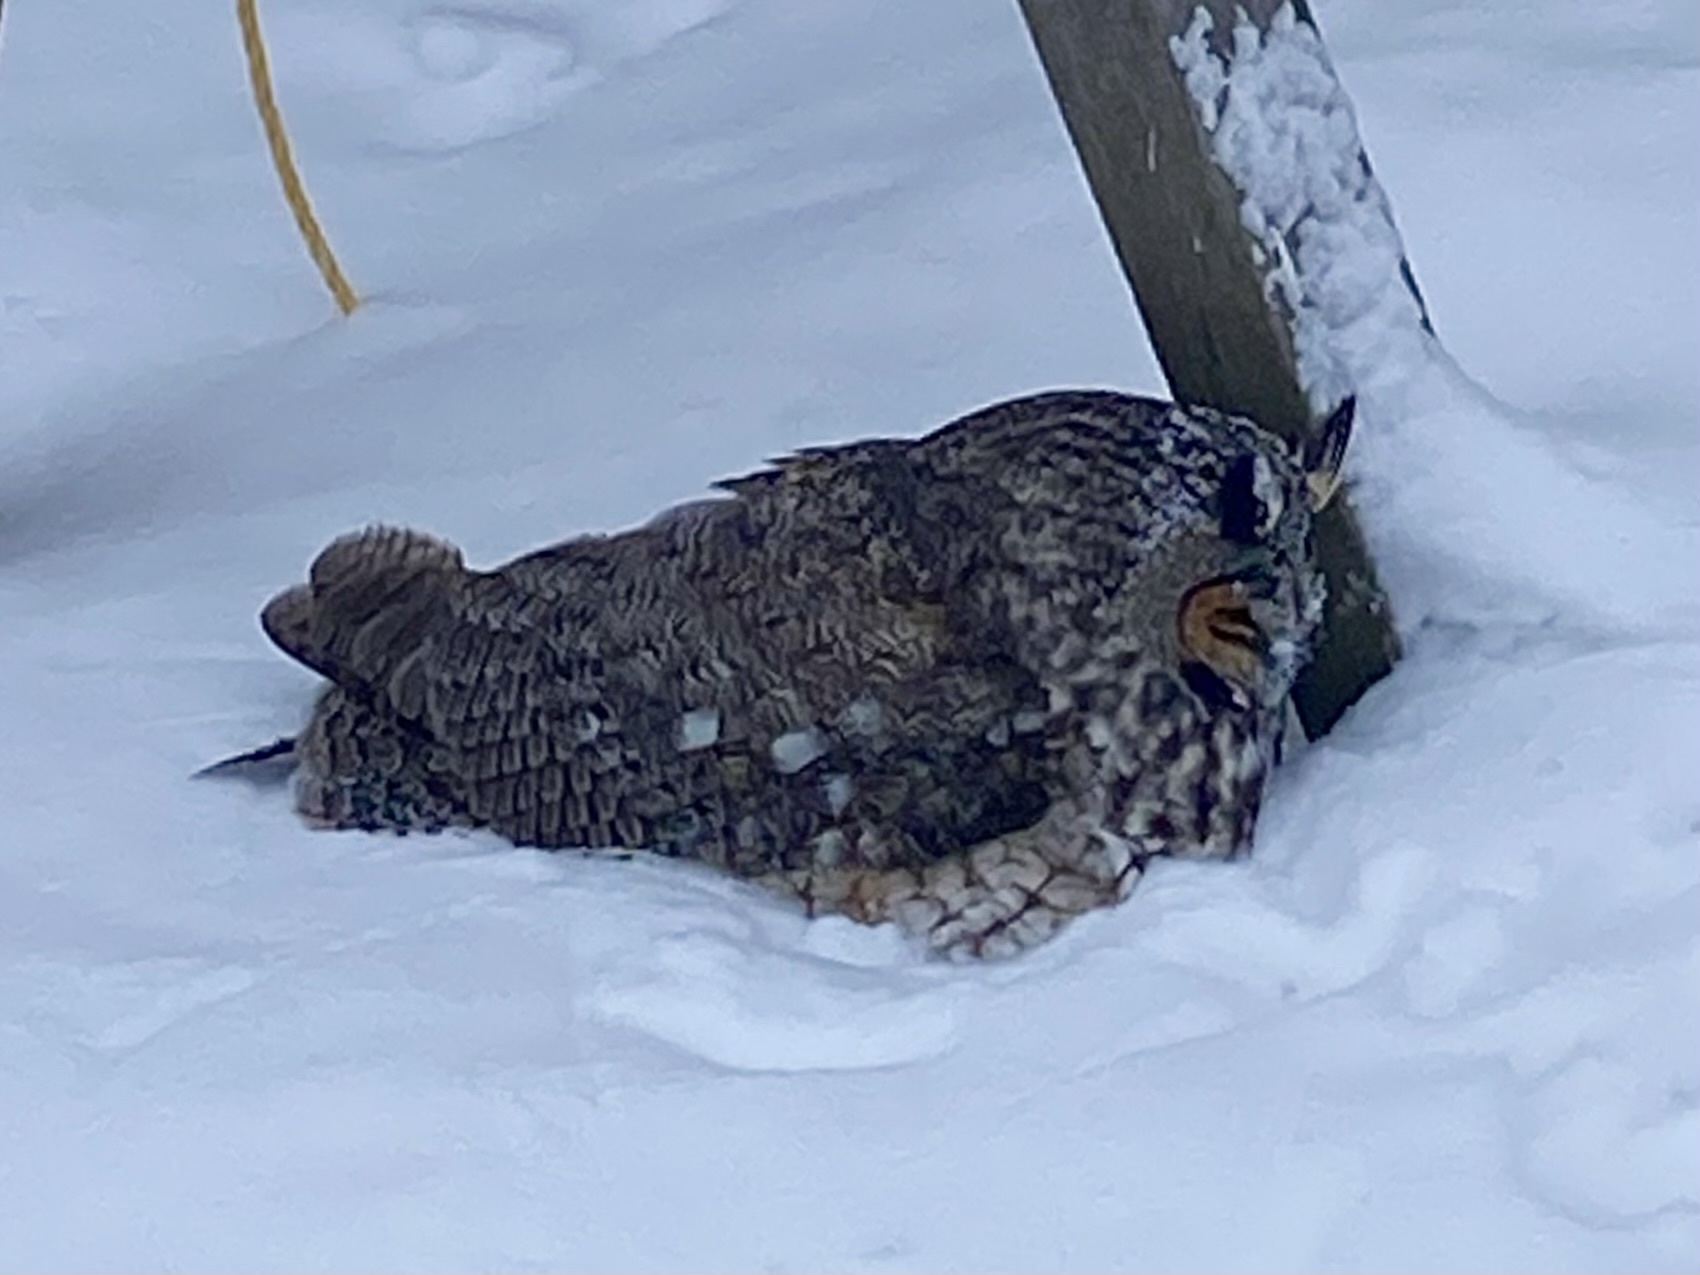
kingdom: Animalia
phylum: Chordata
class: Aves
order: Strigiformes
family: Strigidae
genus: Asio
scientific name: Asio otus
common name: Long-eared owl
